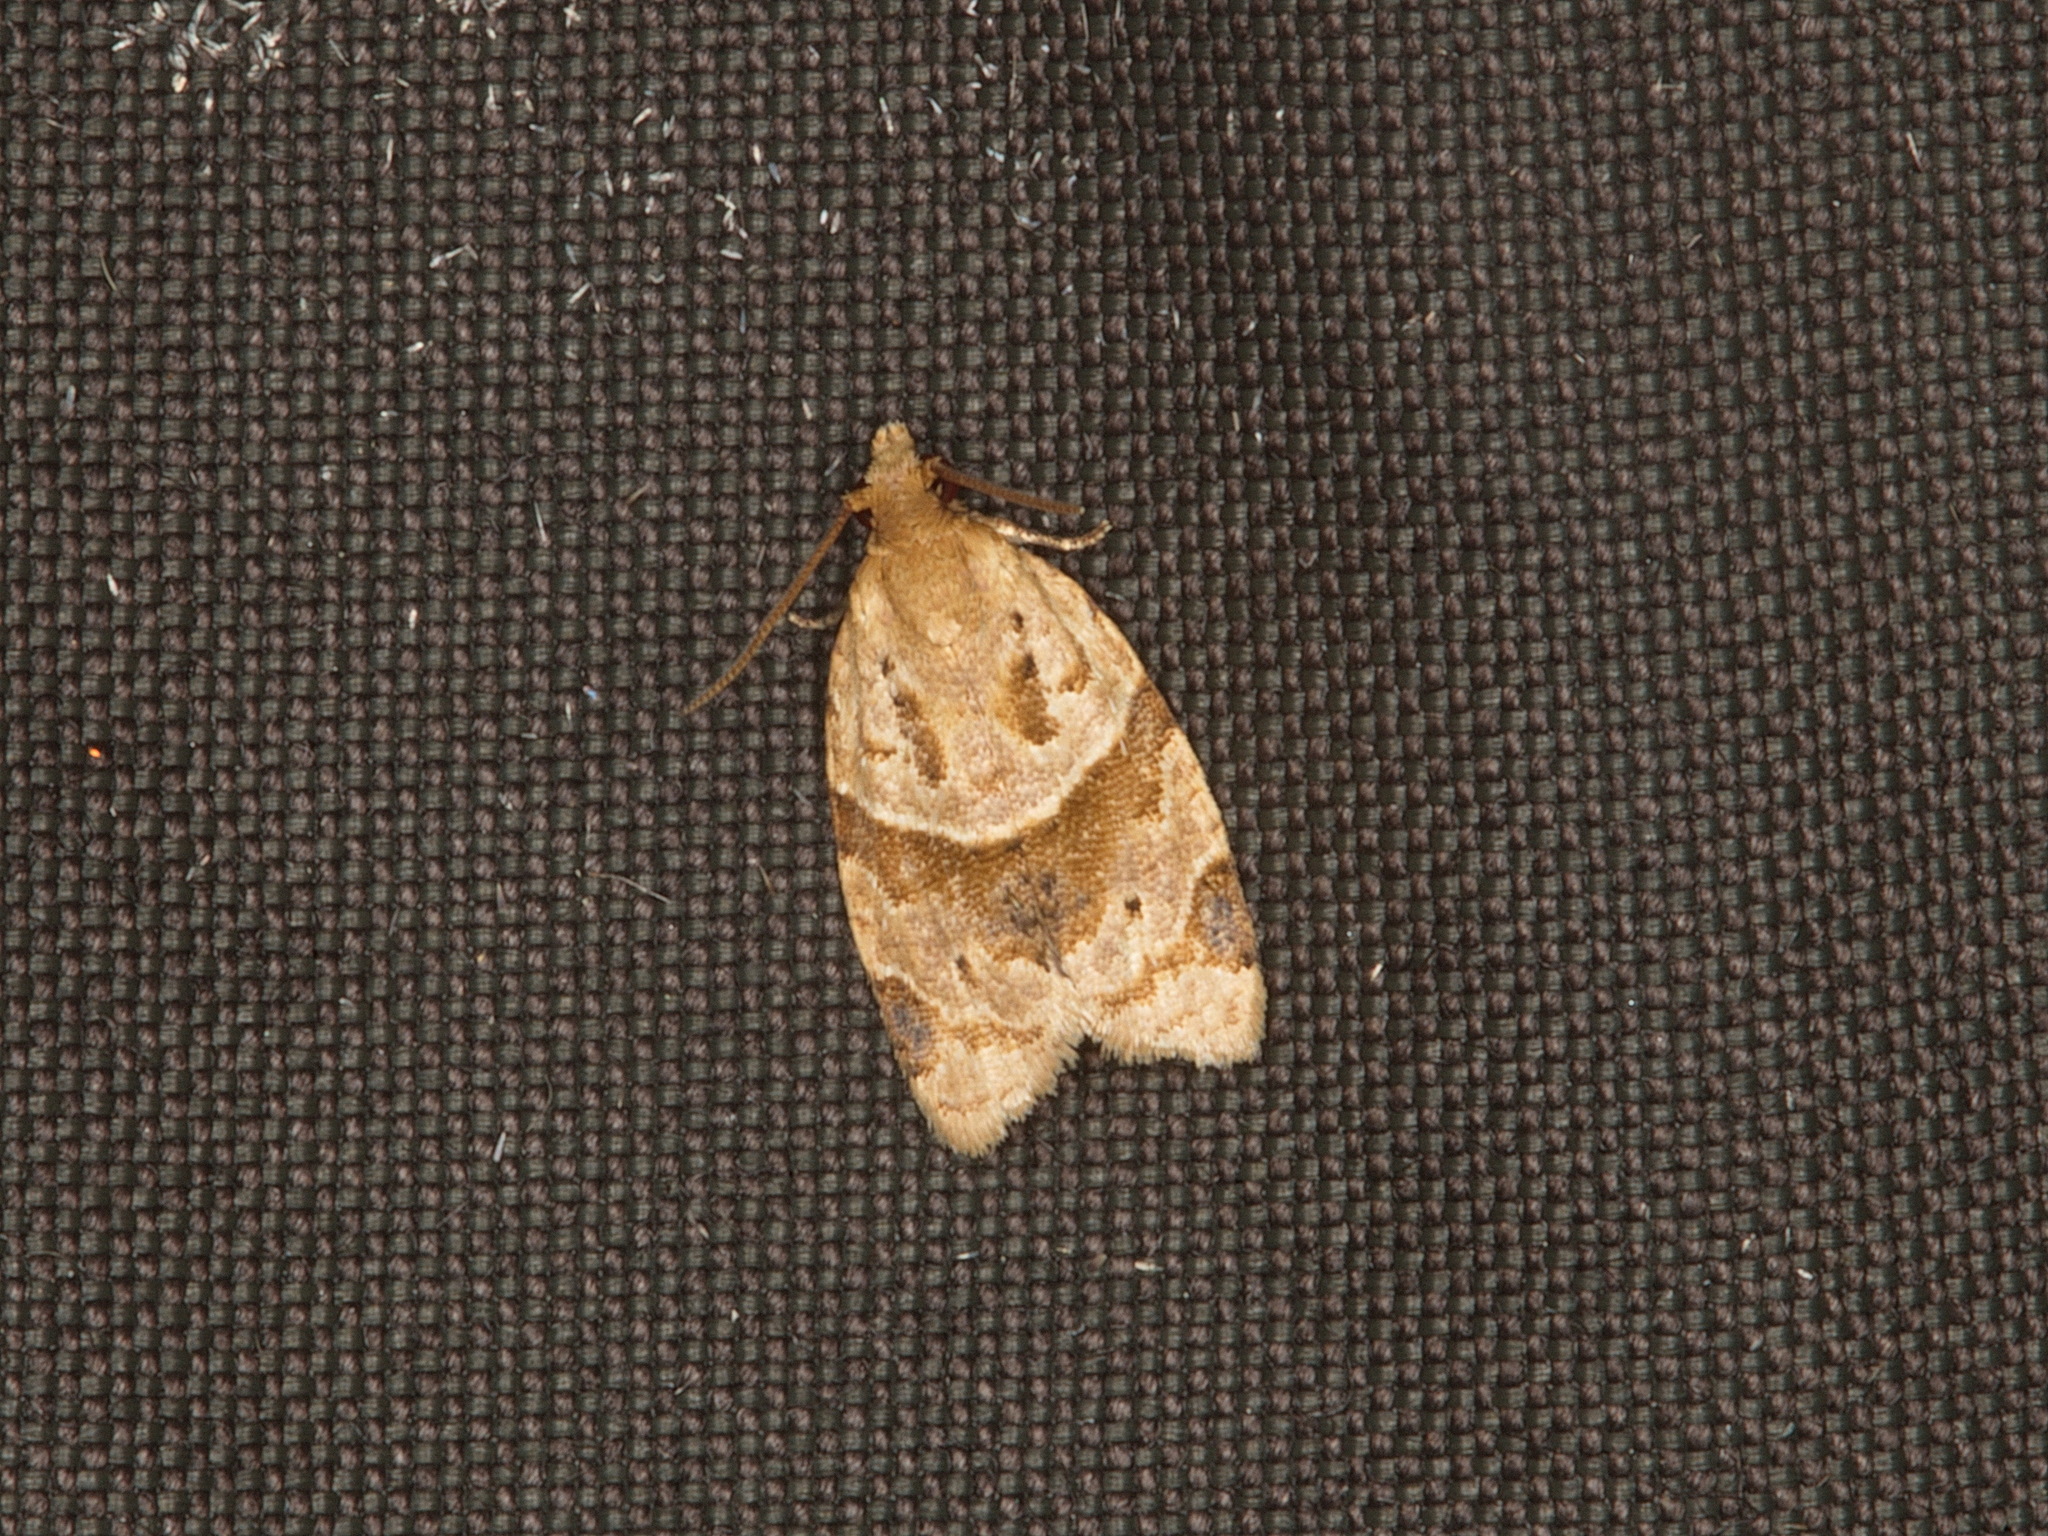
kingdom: Animalia
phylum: Arthropoda
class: Insecta
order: Lepidoptera
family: Tortricidae
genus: Clepsis
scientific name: Clepsis peritana
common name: Garden tortrix
